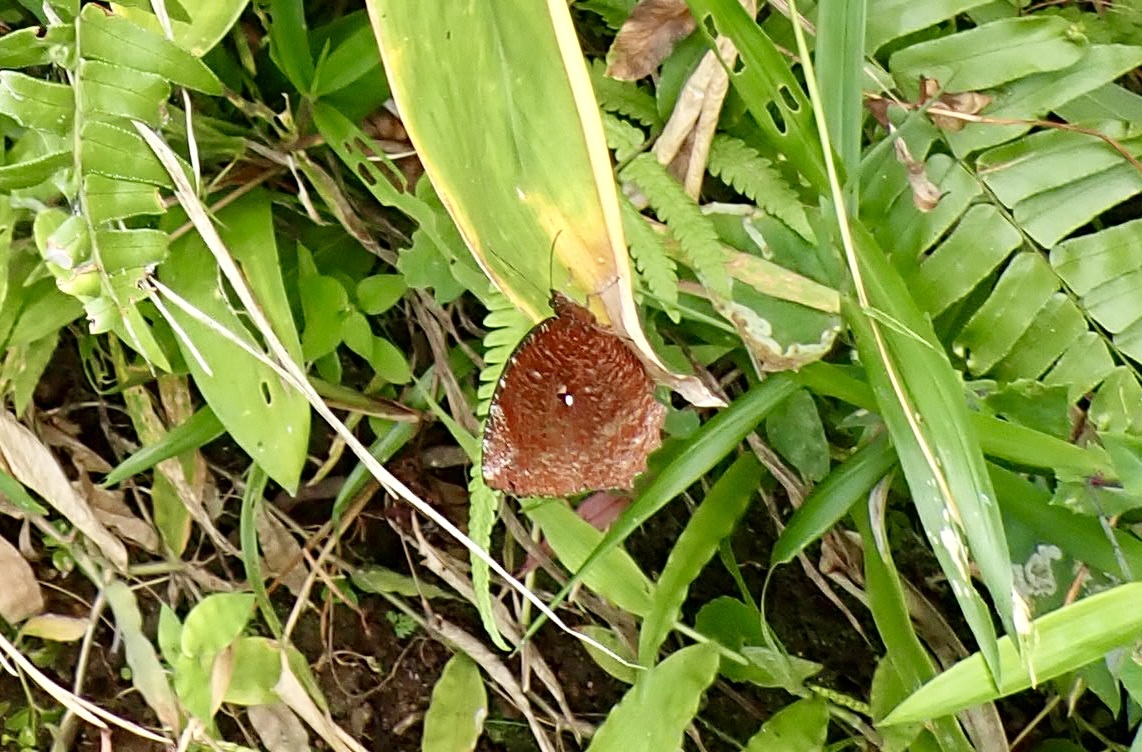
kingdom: Animalia
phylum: Arthropoda
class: Insecta
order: Lepidoptera
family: Nymphalidae
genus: Elymnias
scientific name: Elymnias hypermnestra
